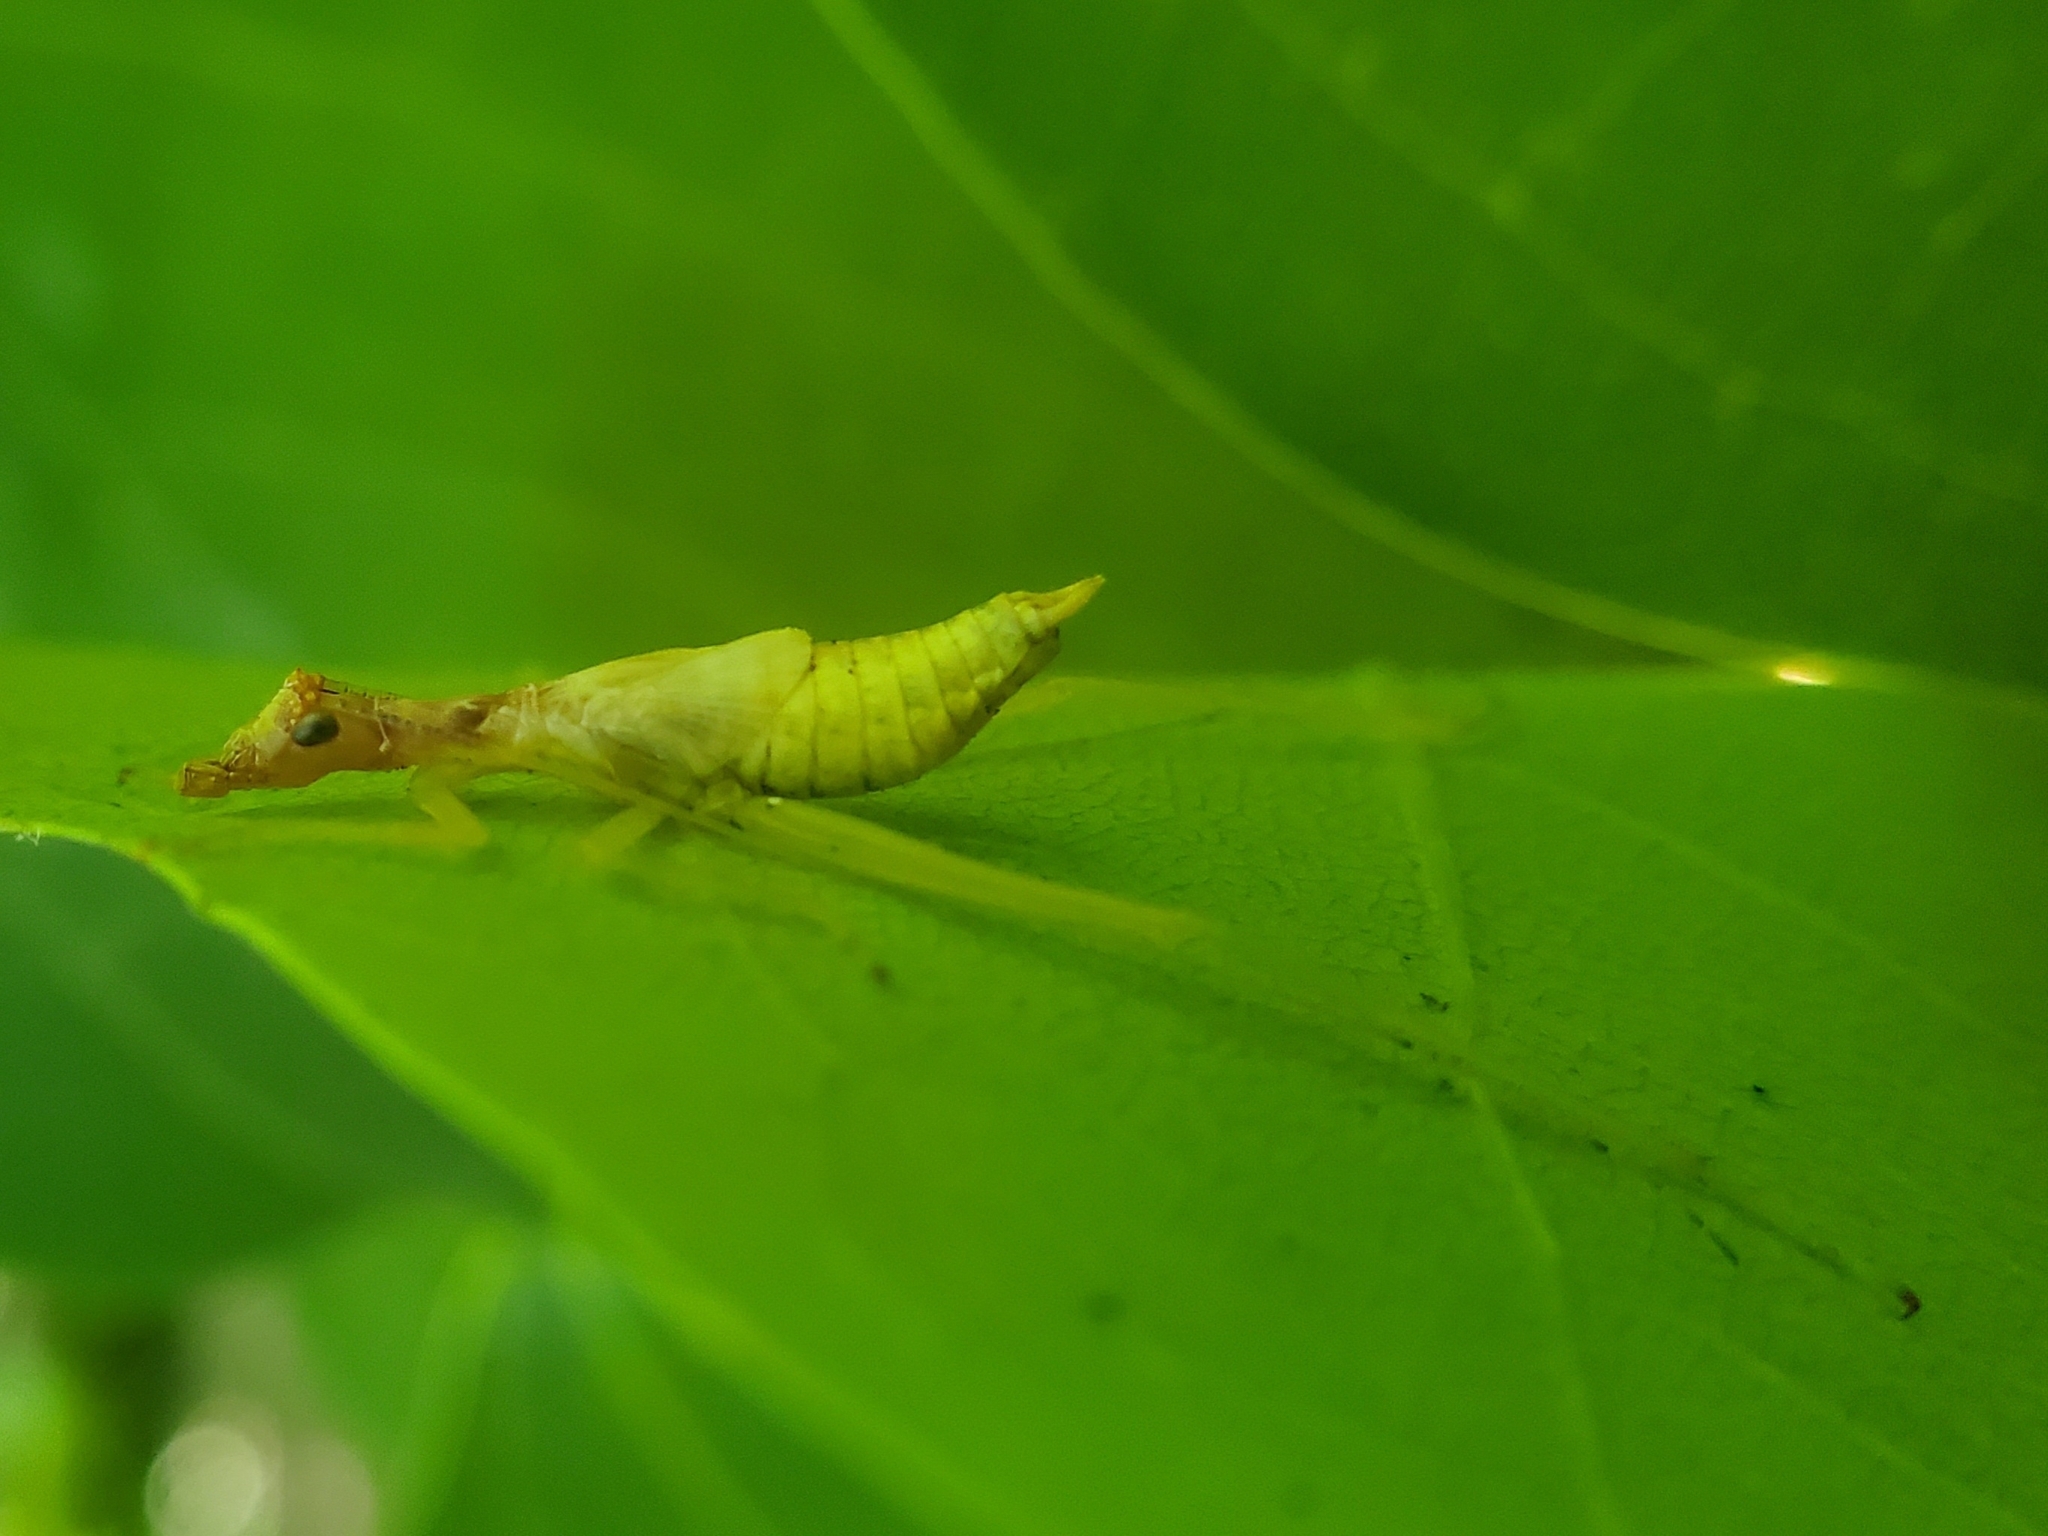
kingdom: Animalia
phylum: Arthropoda
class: Insecta
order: Orthoptera
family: Gryllidae
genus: Neoxabea
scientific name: Neoxabea bipunctata
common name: Two-spotted tree cricket
